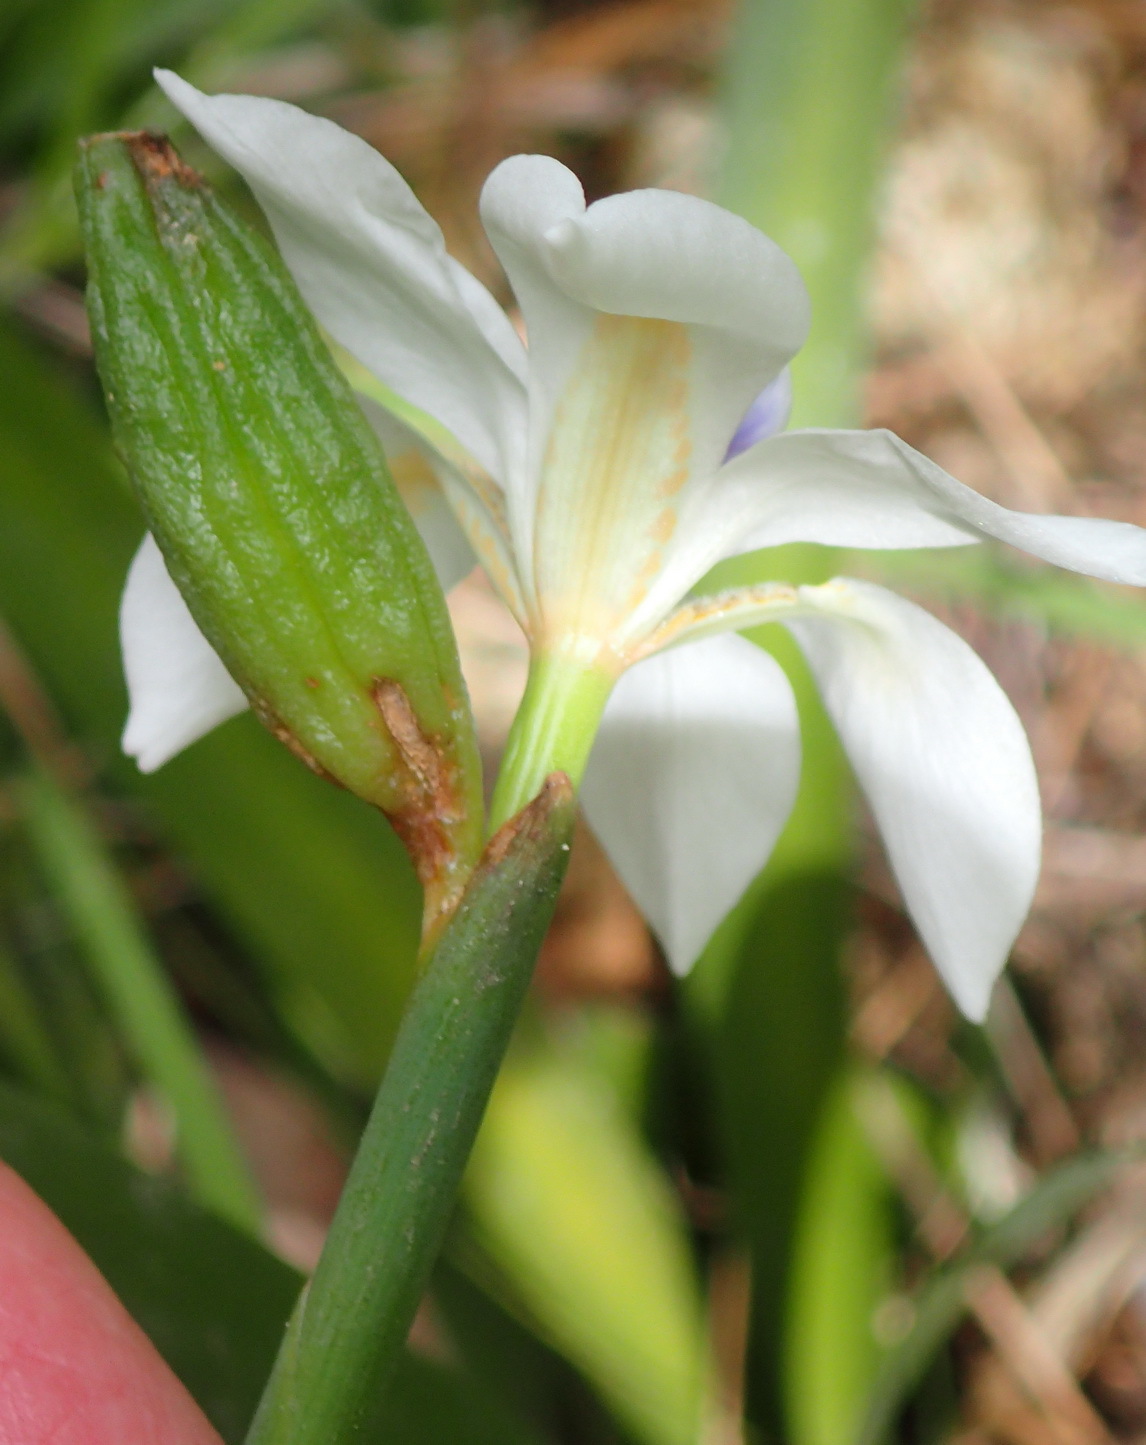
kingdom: Plantae
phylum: Tracheophyta
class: Liliopsida
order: Asparagales
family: Iridaceae
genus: Dietes
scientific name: Dietes iridioides
